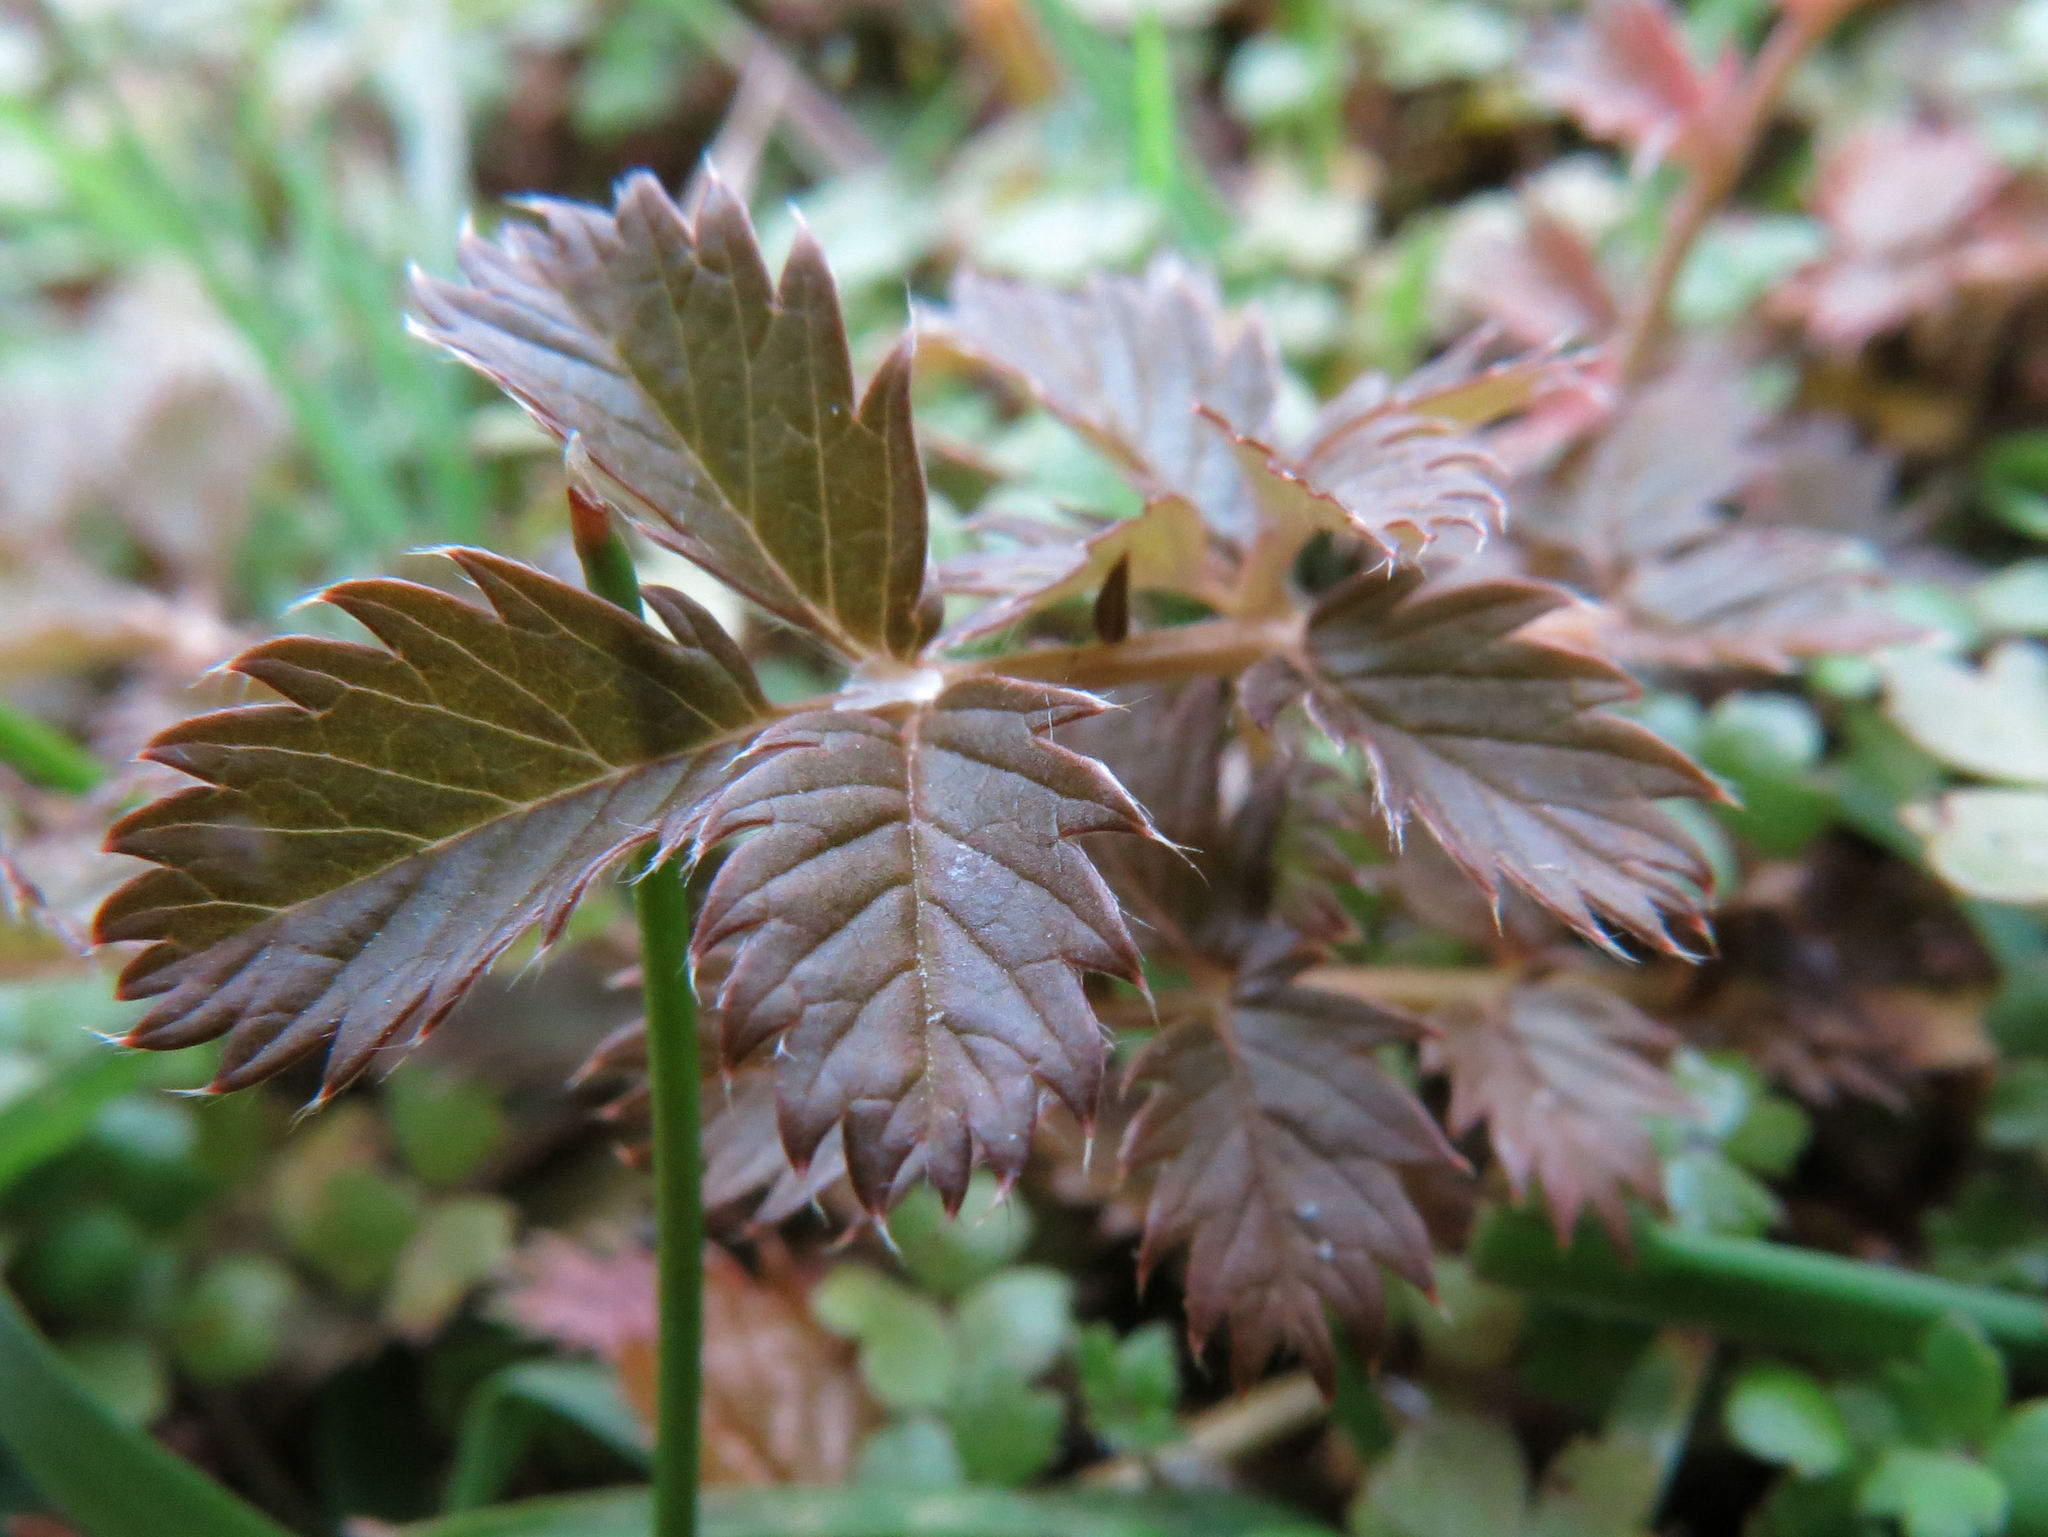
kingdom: Plantae
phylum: Tracheophyta
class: Magnoliopsida
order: Rosales
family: Rosaceae
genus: Argentina
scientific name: Argentina anserinoides
